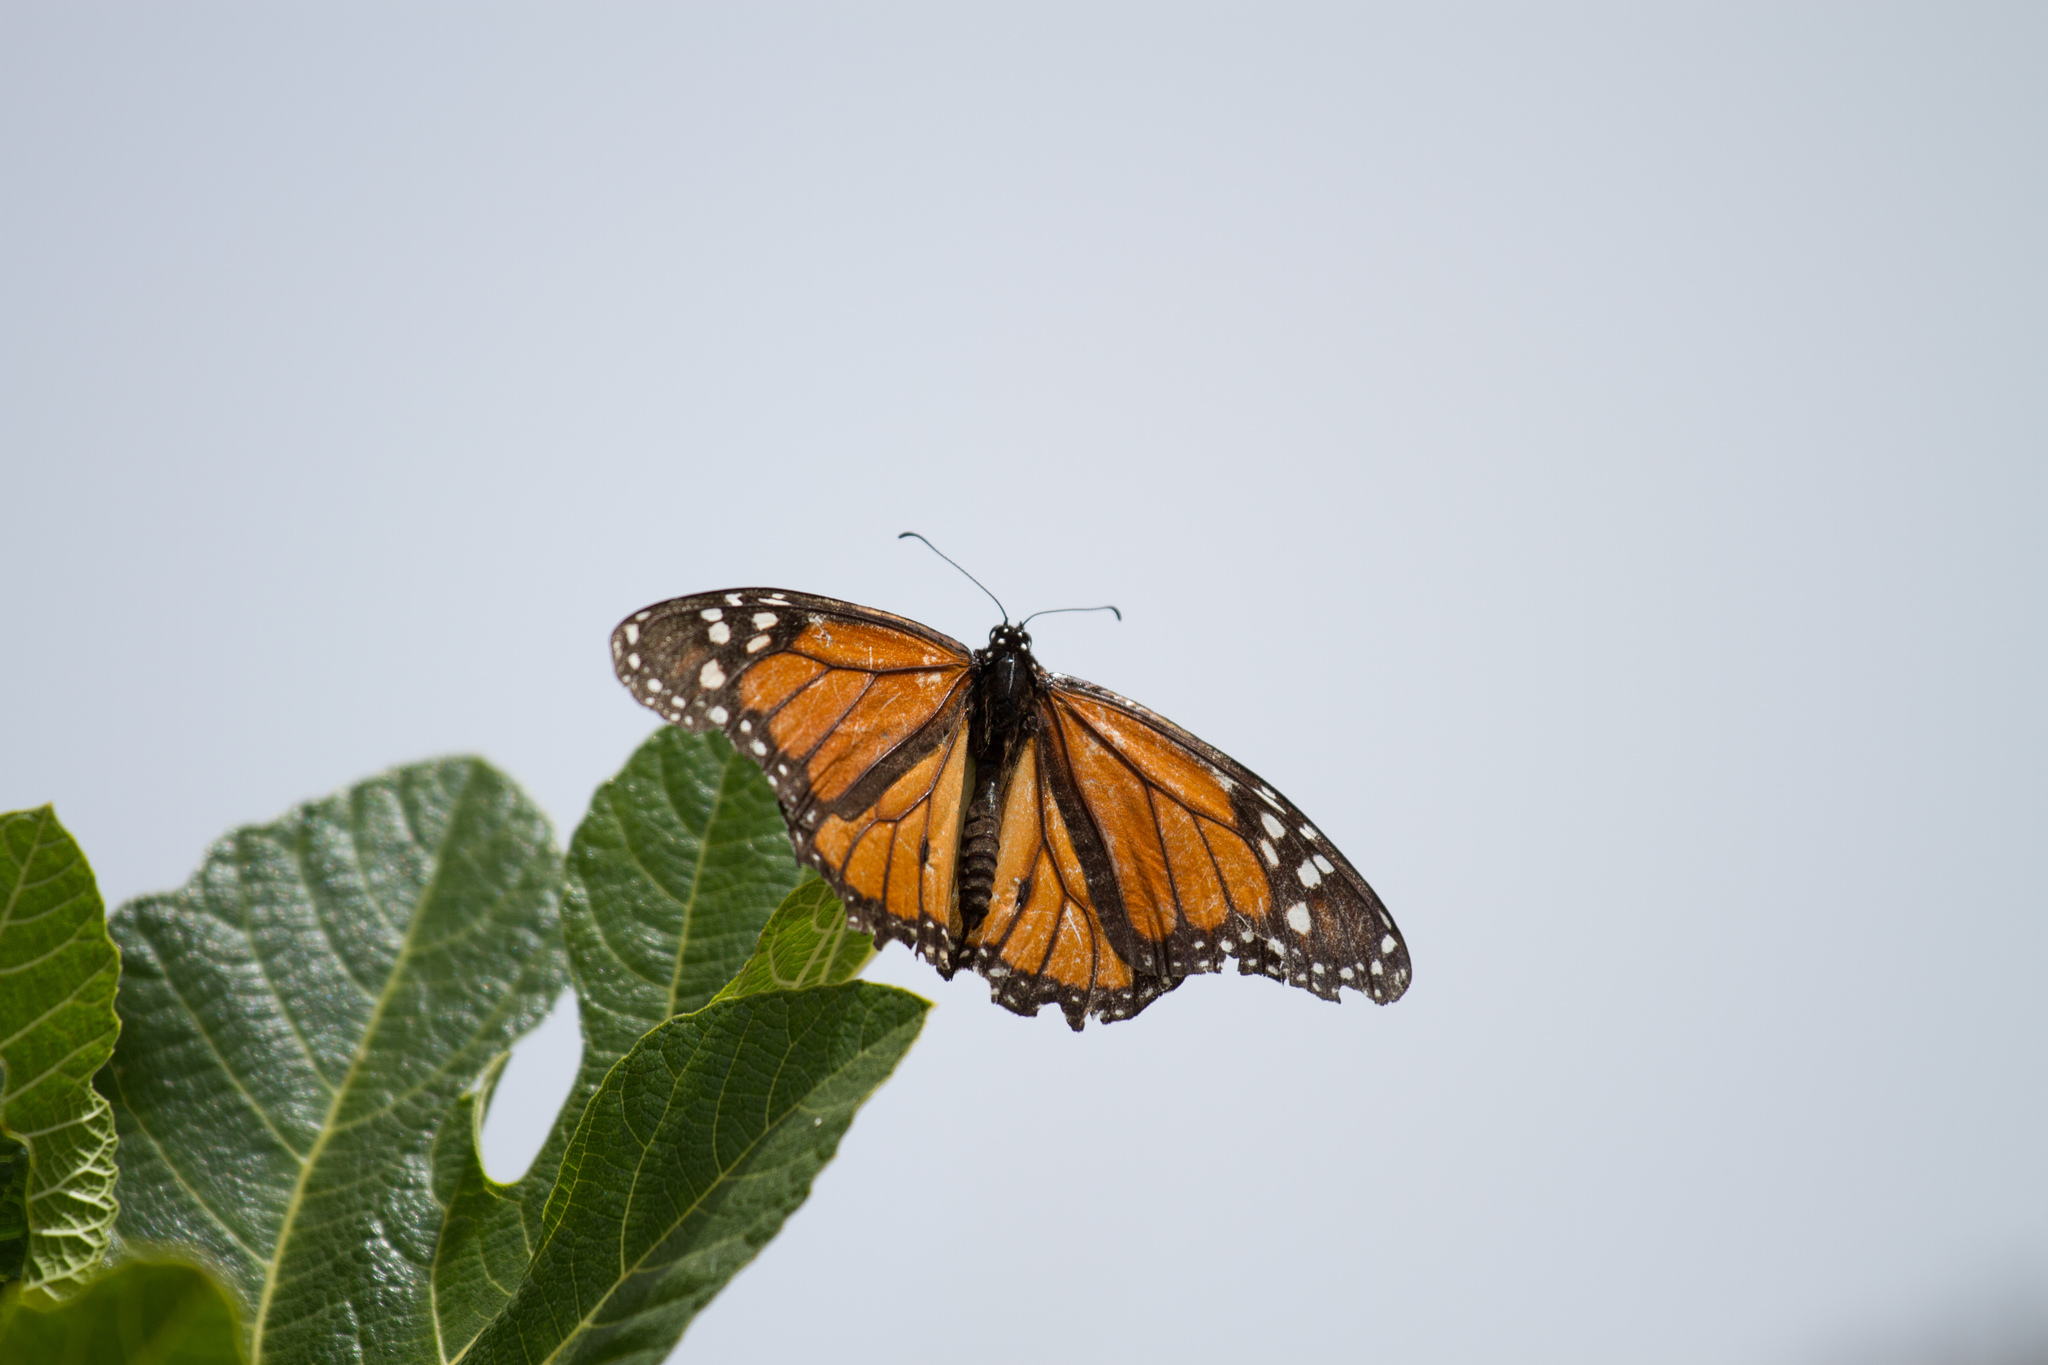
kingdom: Animalia
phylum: Arthropoda
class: Insecta
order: Lepidoptera
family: Nymphalidae
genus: Danaus
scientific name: Danaus plexippus
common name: Monarch
